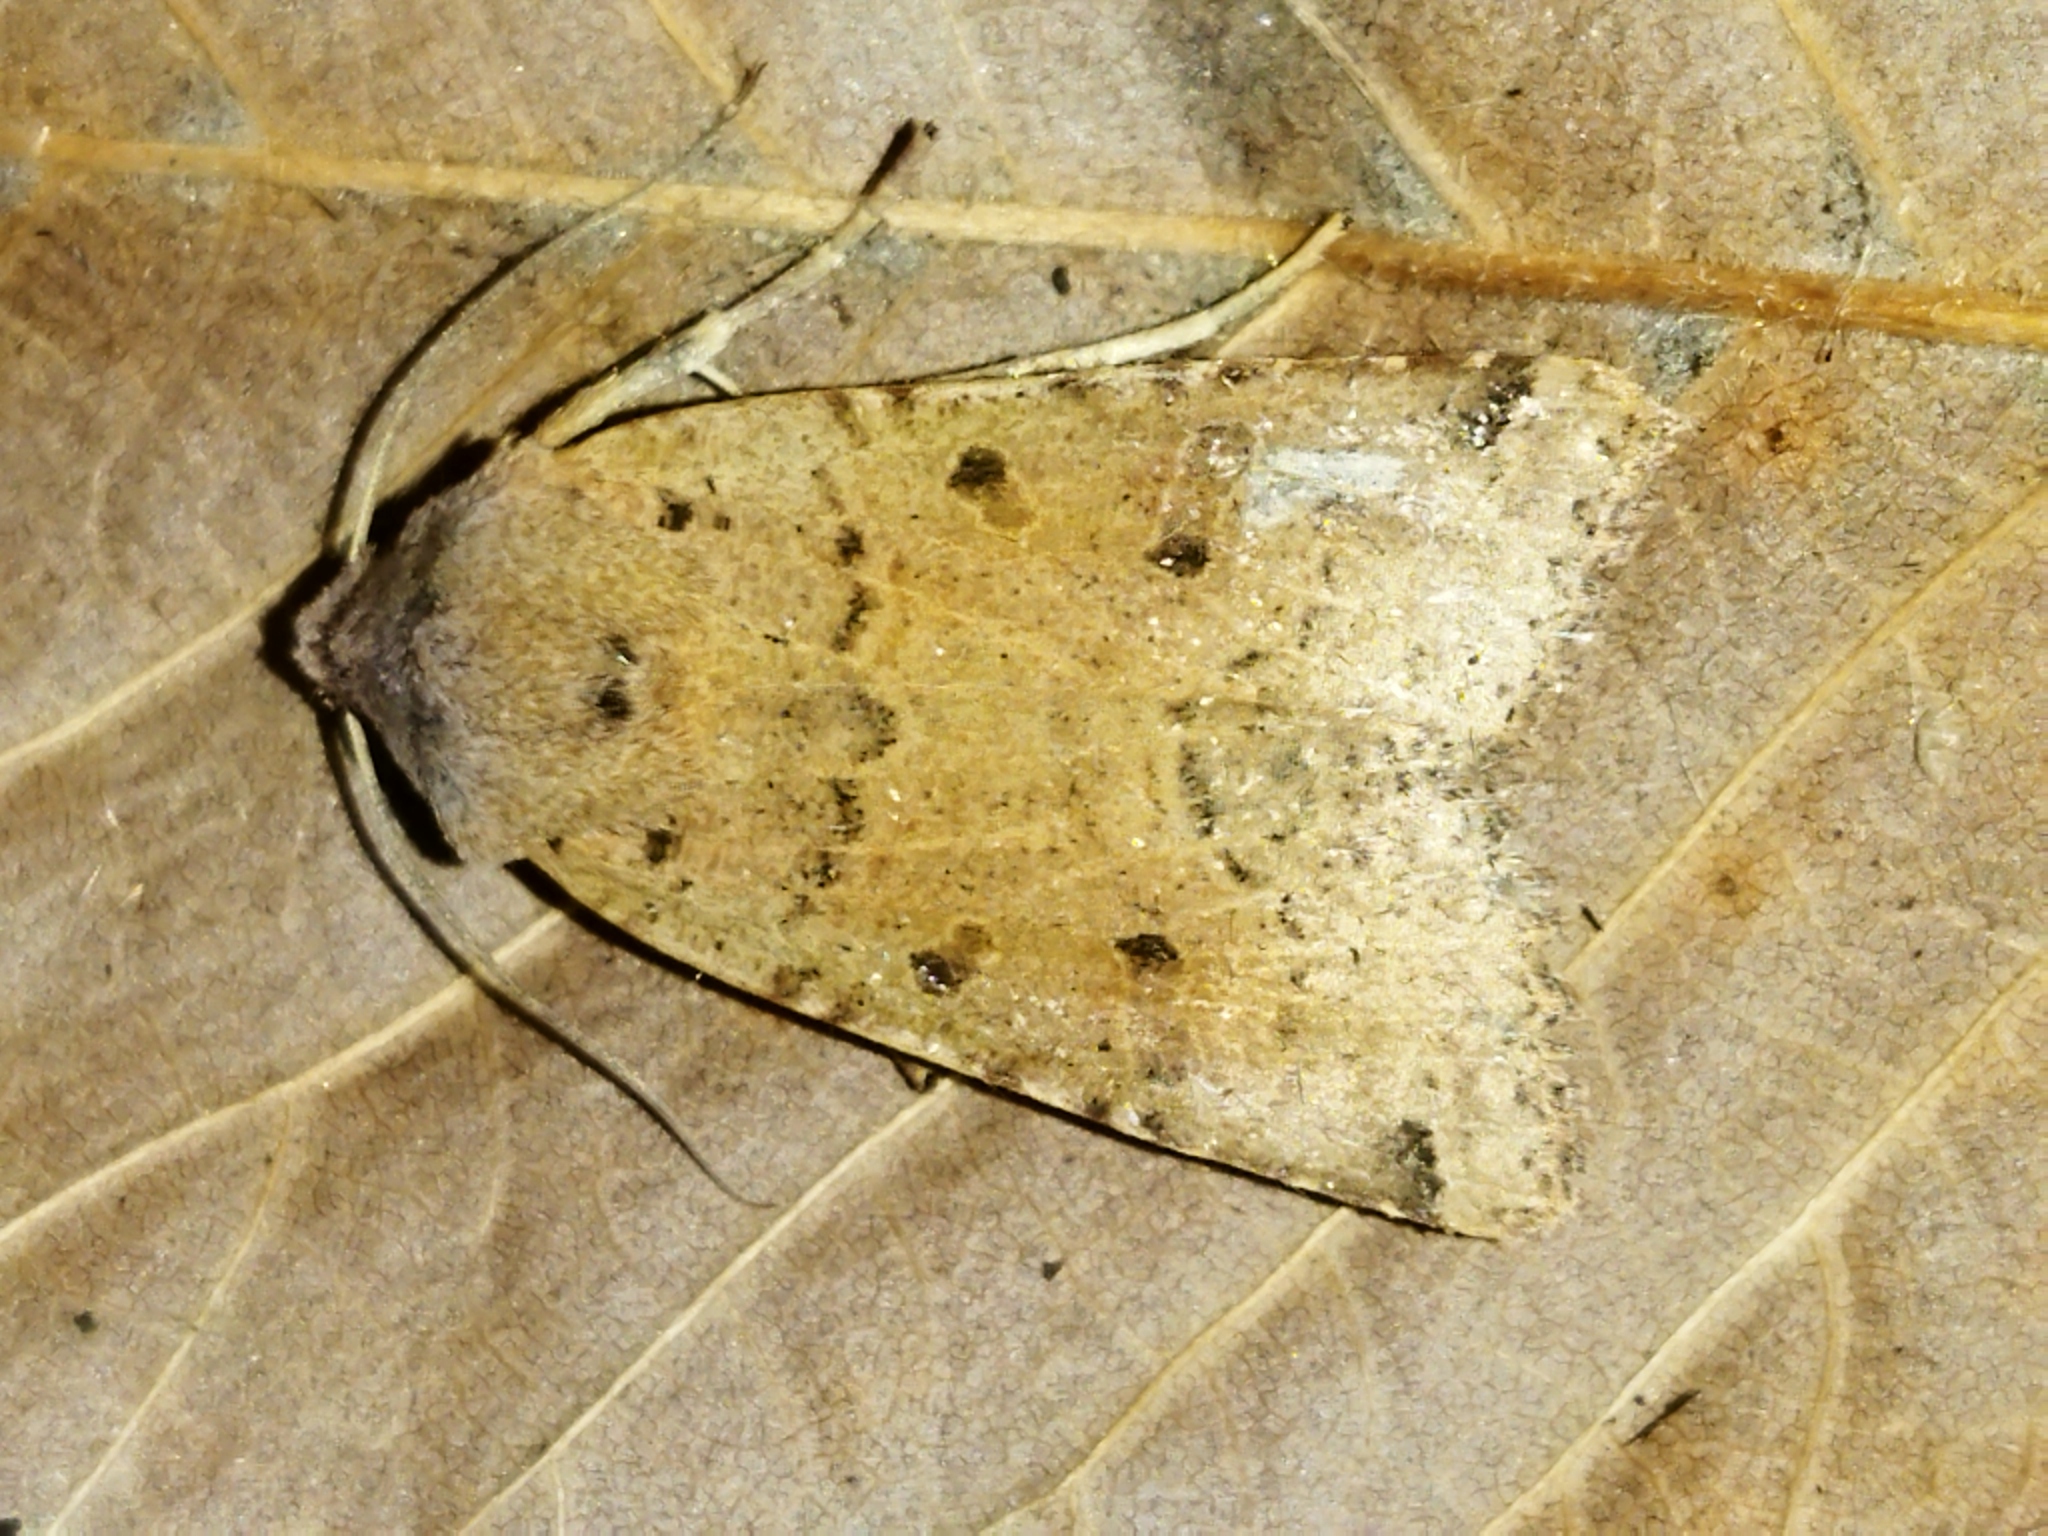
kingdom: Animalia
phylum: Arthropoda
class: Insecta
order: Lepidoptera
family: Noctuidae
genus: Agrochola
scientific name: Agrochola lychnidis
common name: Beaded chestnut
